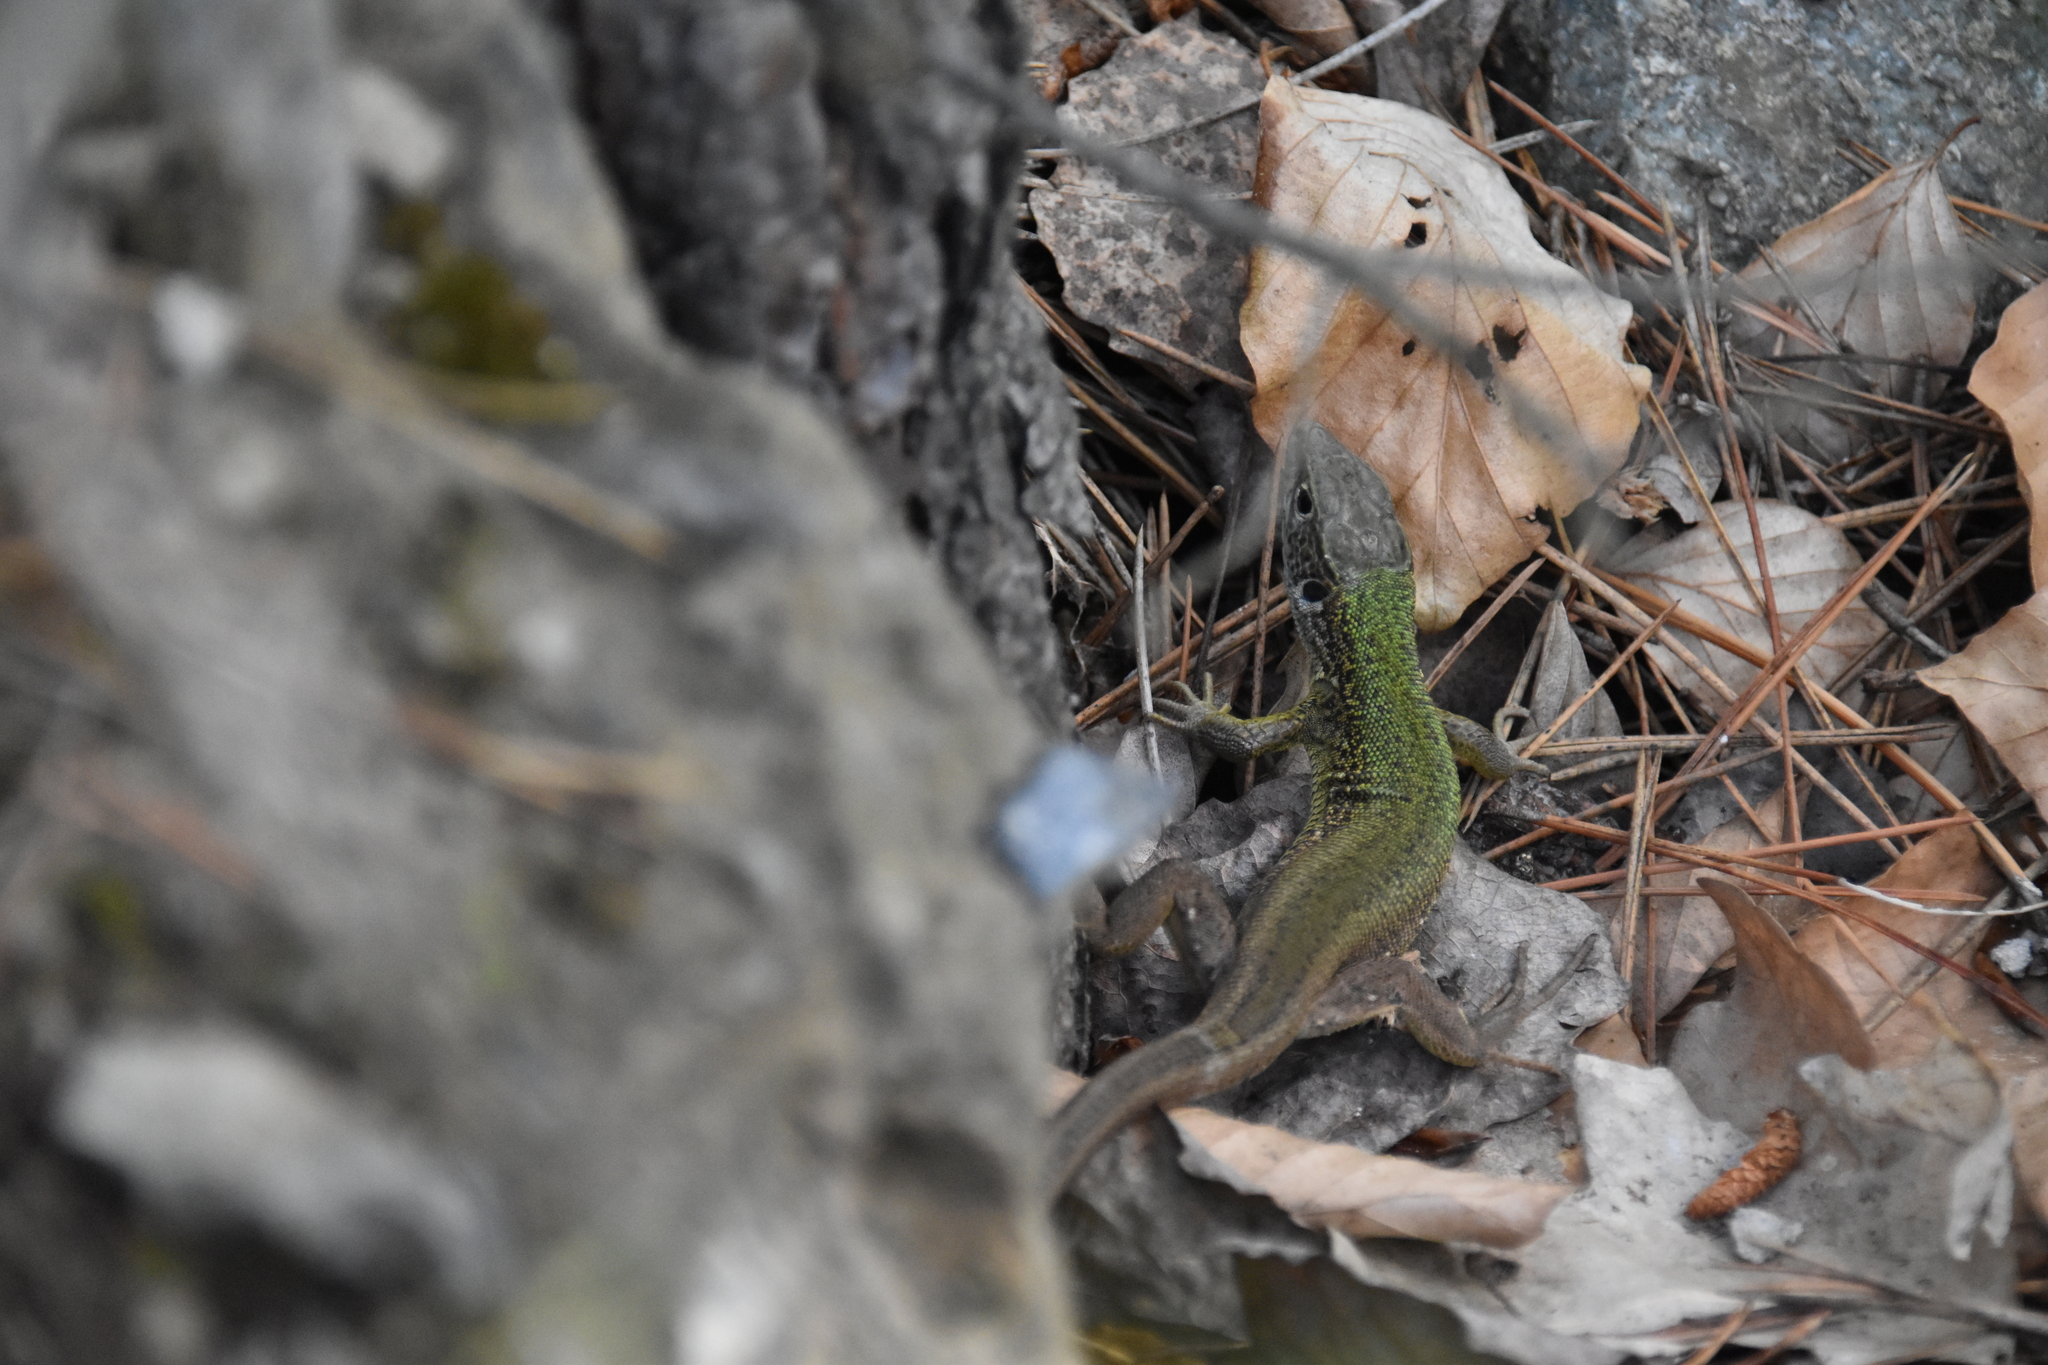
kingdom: Animalia
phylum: Chordata
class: Squamata
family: Lacertidae
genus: Lacerta
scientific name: Lacerta viridis
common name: European green lizard
